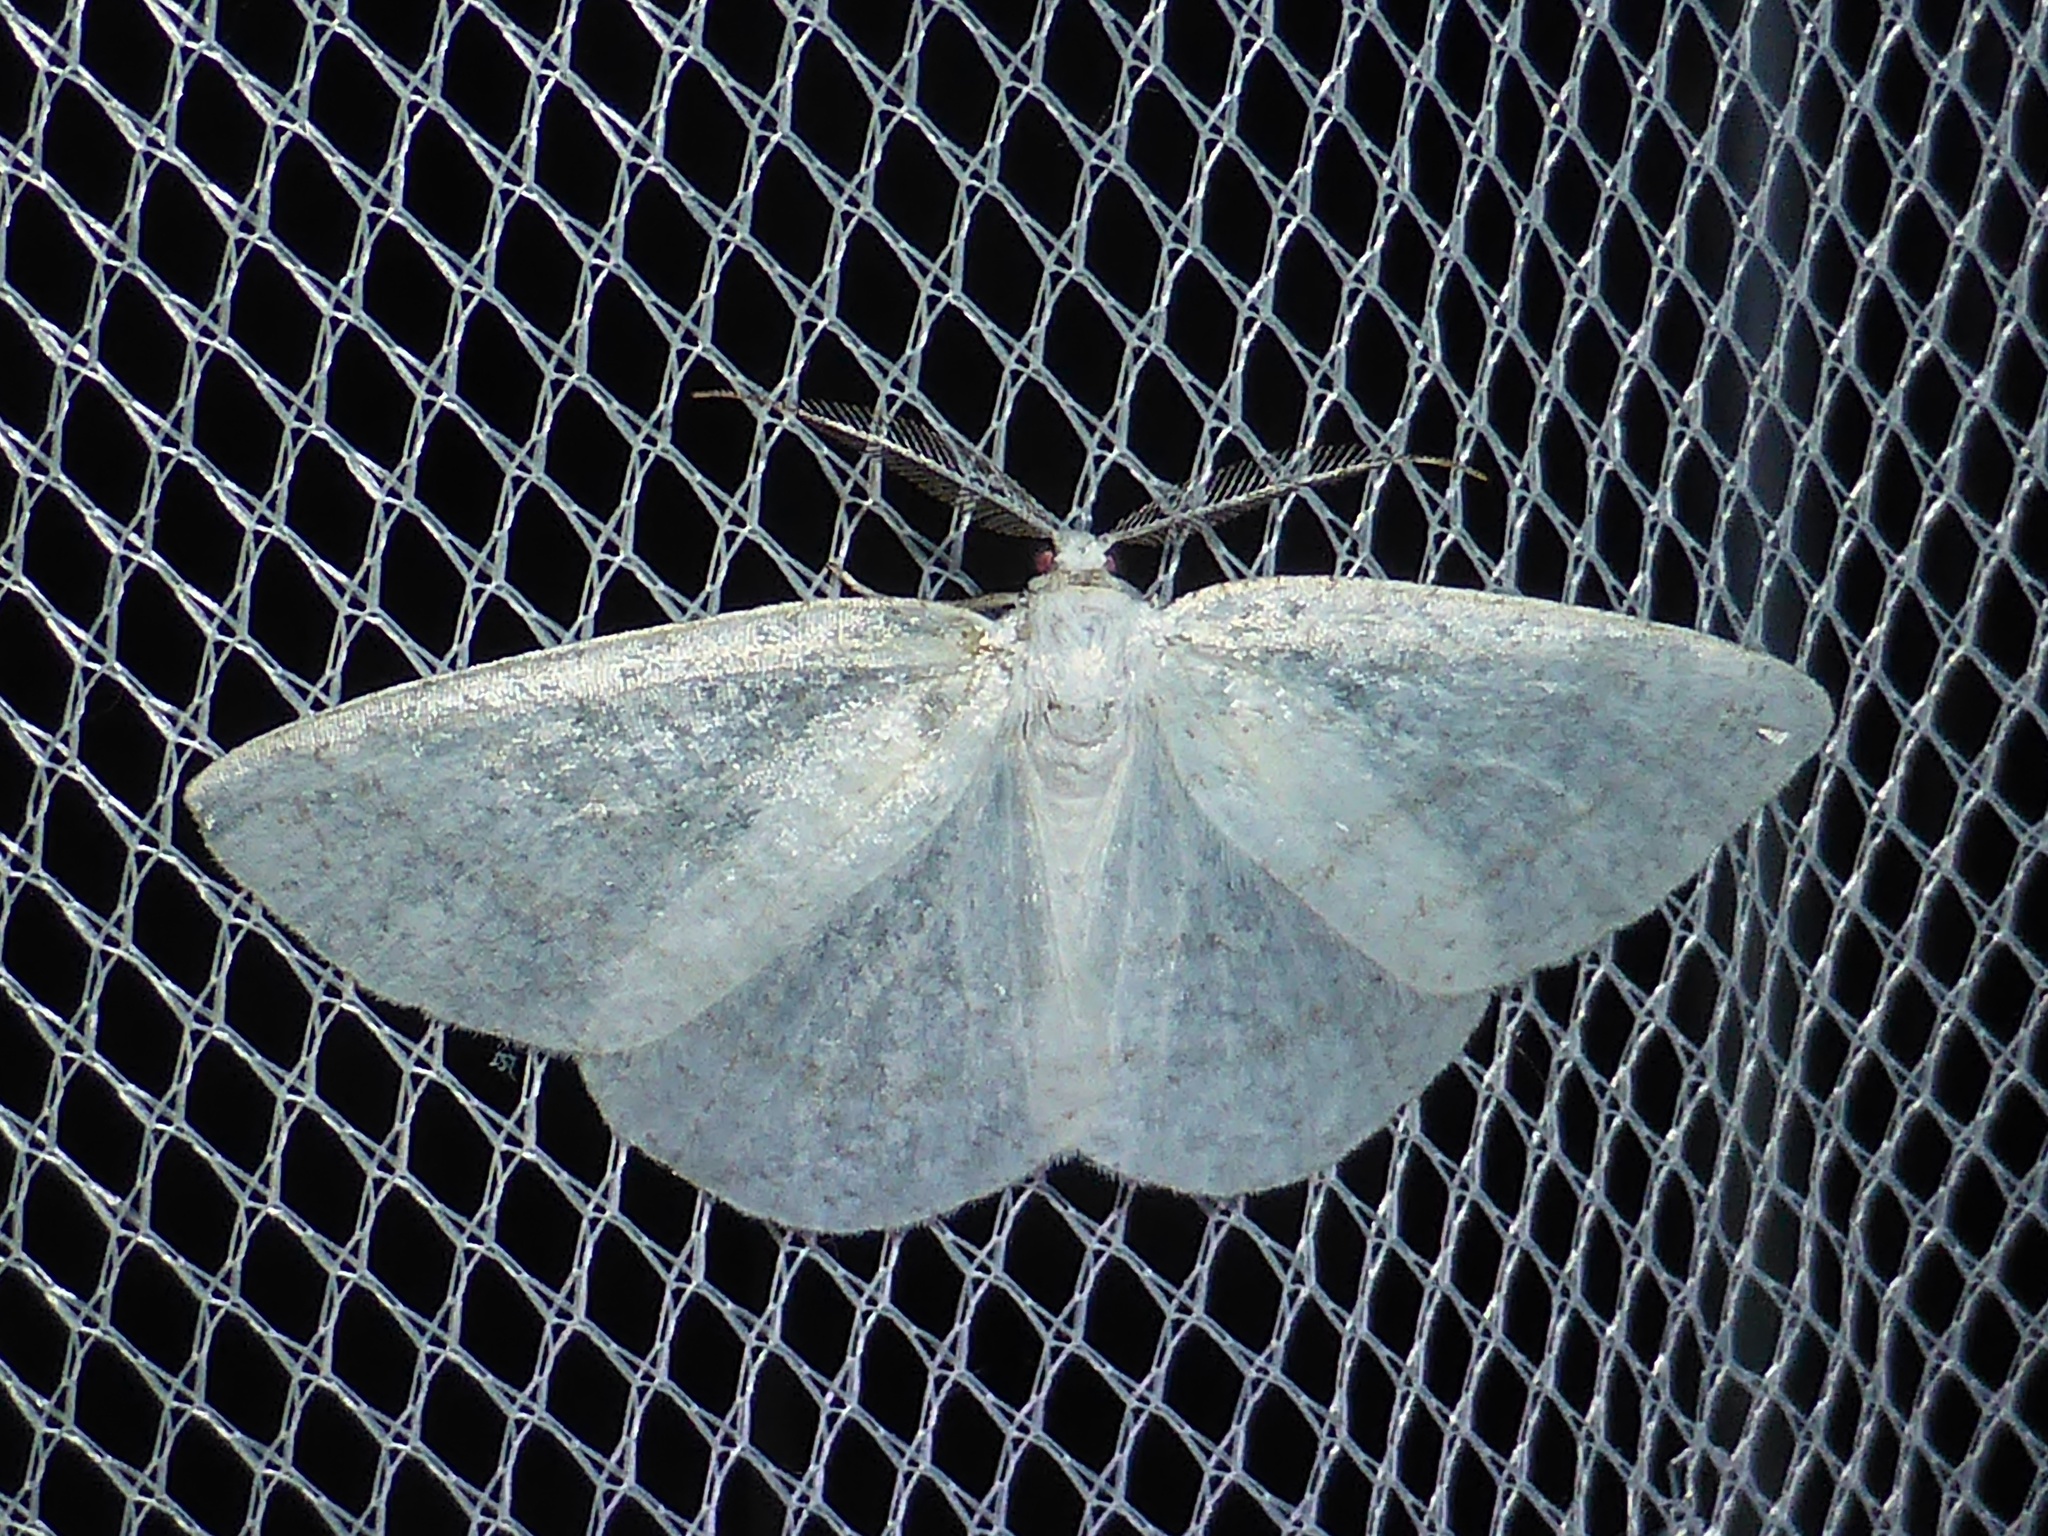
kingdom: Animalia
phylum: Arthropoda
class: Insecta
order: Lepidoptera
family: Geometridae
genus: Cabera
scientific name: Cabera pusaria
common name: Common white wave
